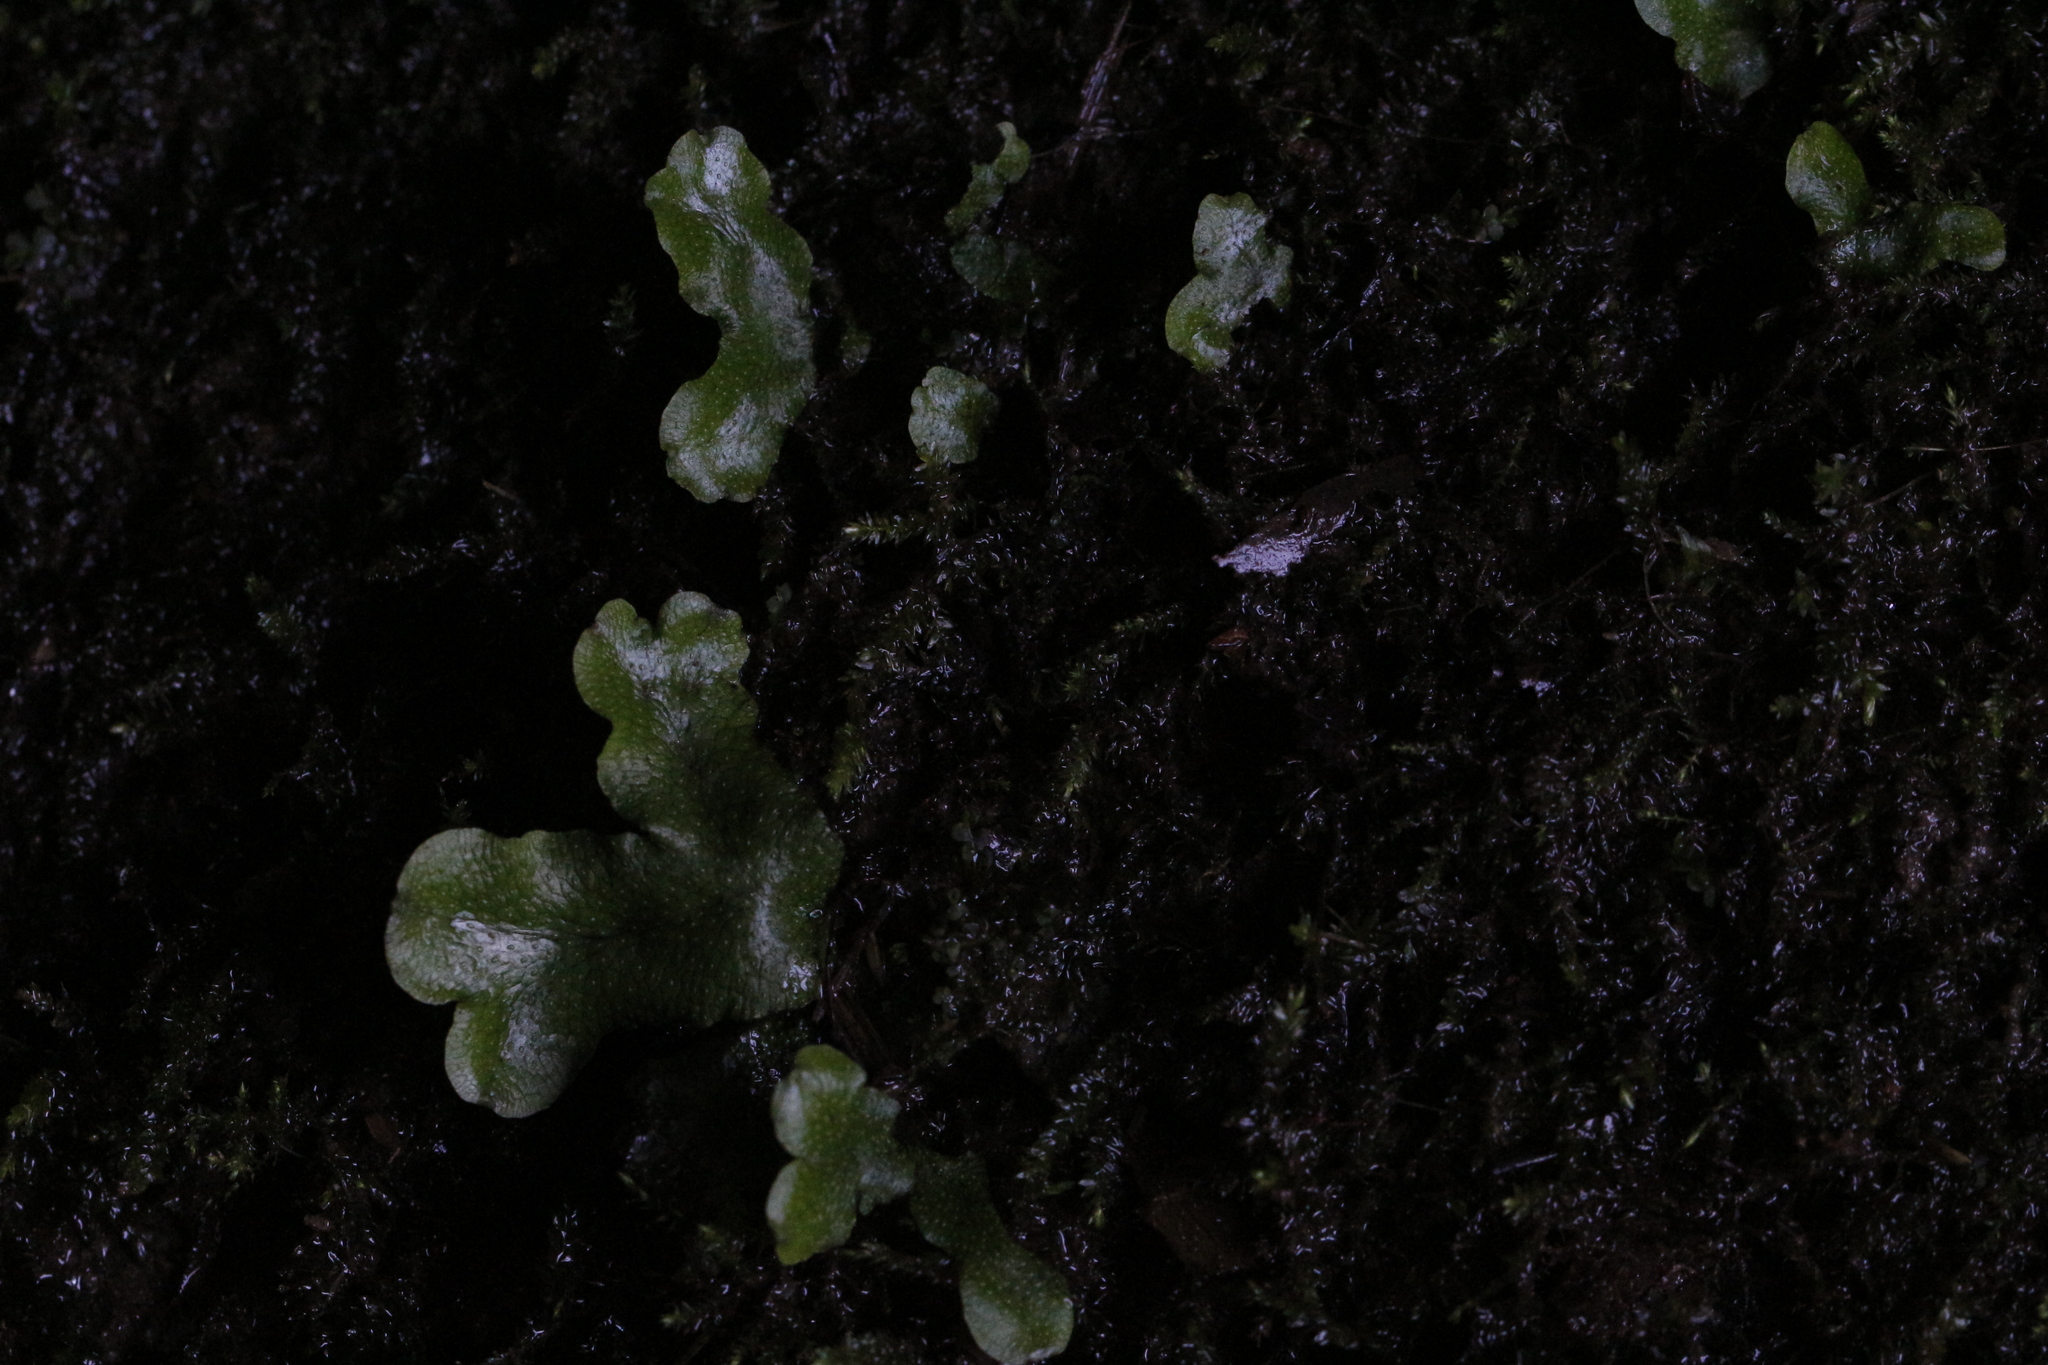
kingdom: Plantae
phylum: Marchantiophyta
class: Marchantiopsida
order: Marchantiales
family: Conocephalaceae
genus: Conocephalum
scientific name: Conocephalum conicum
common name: Great scented liverwort
